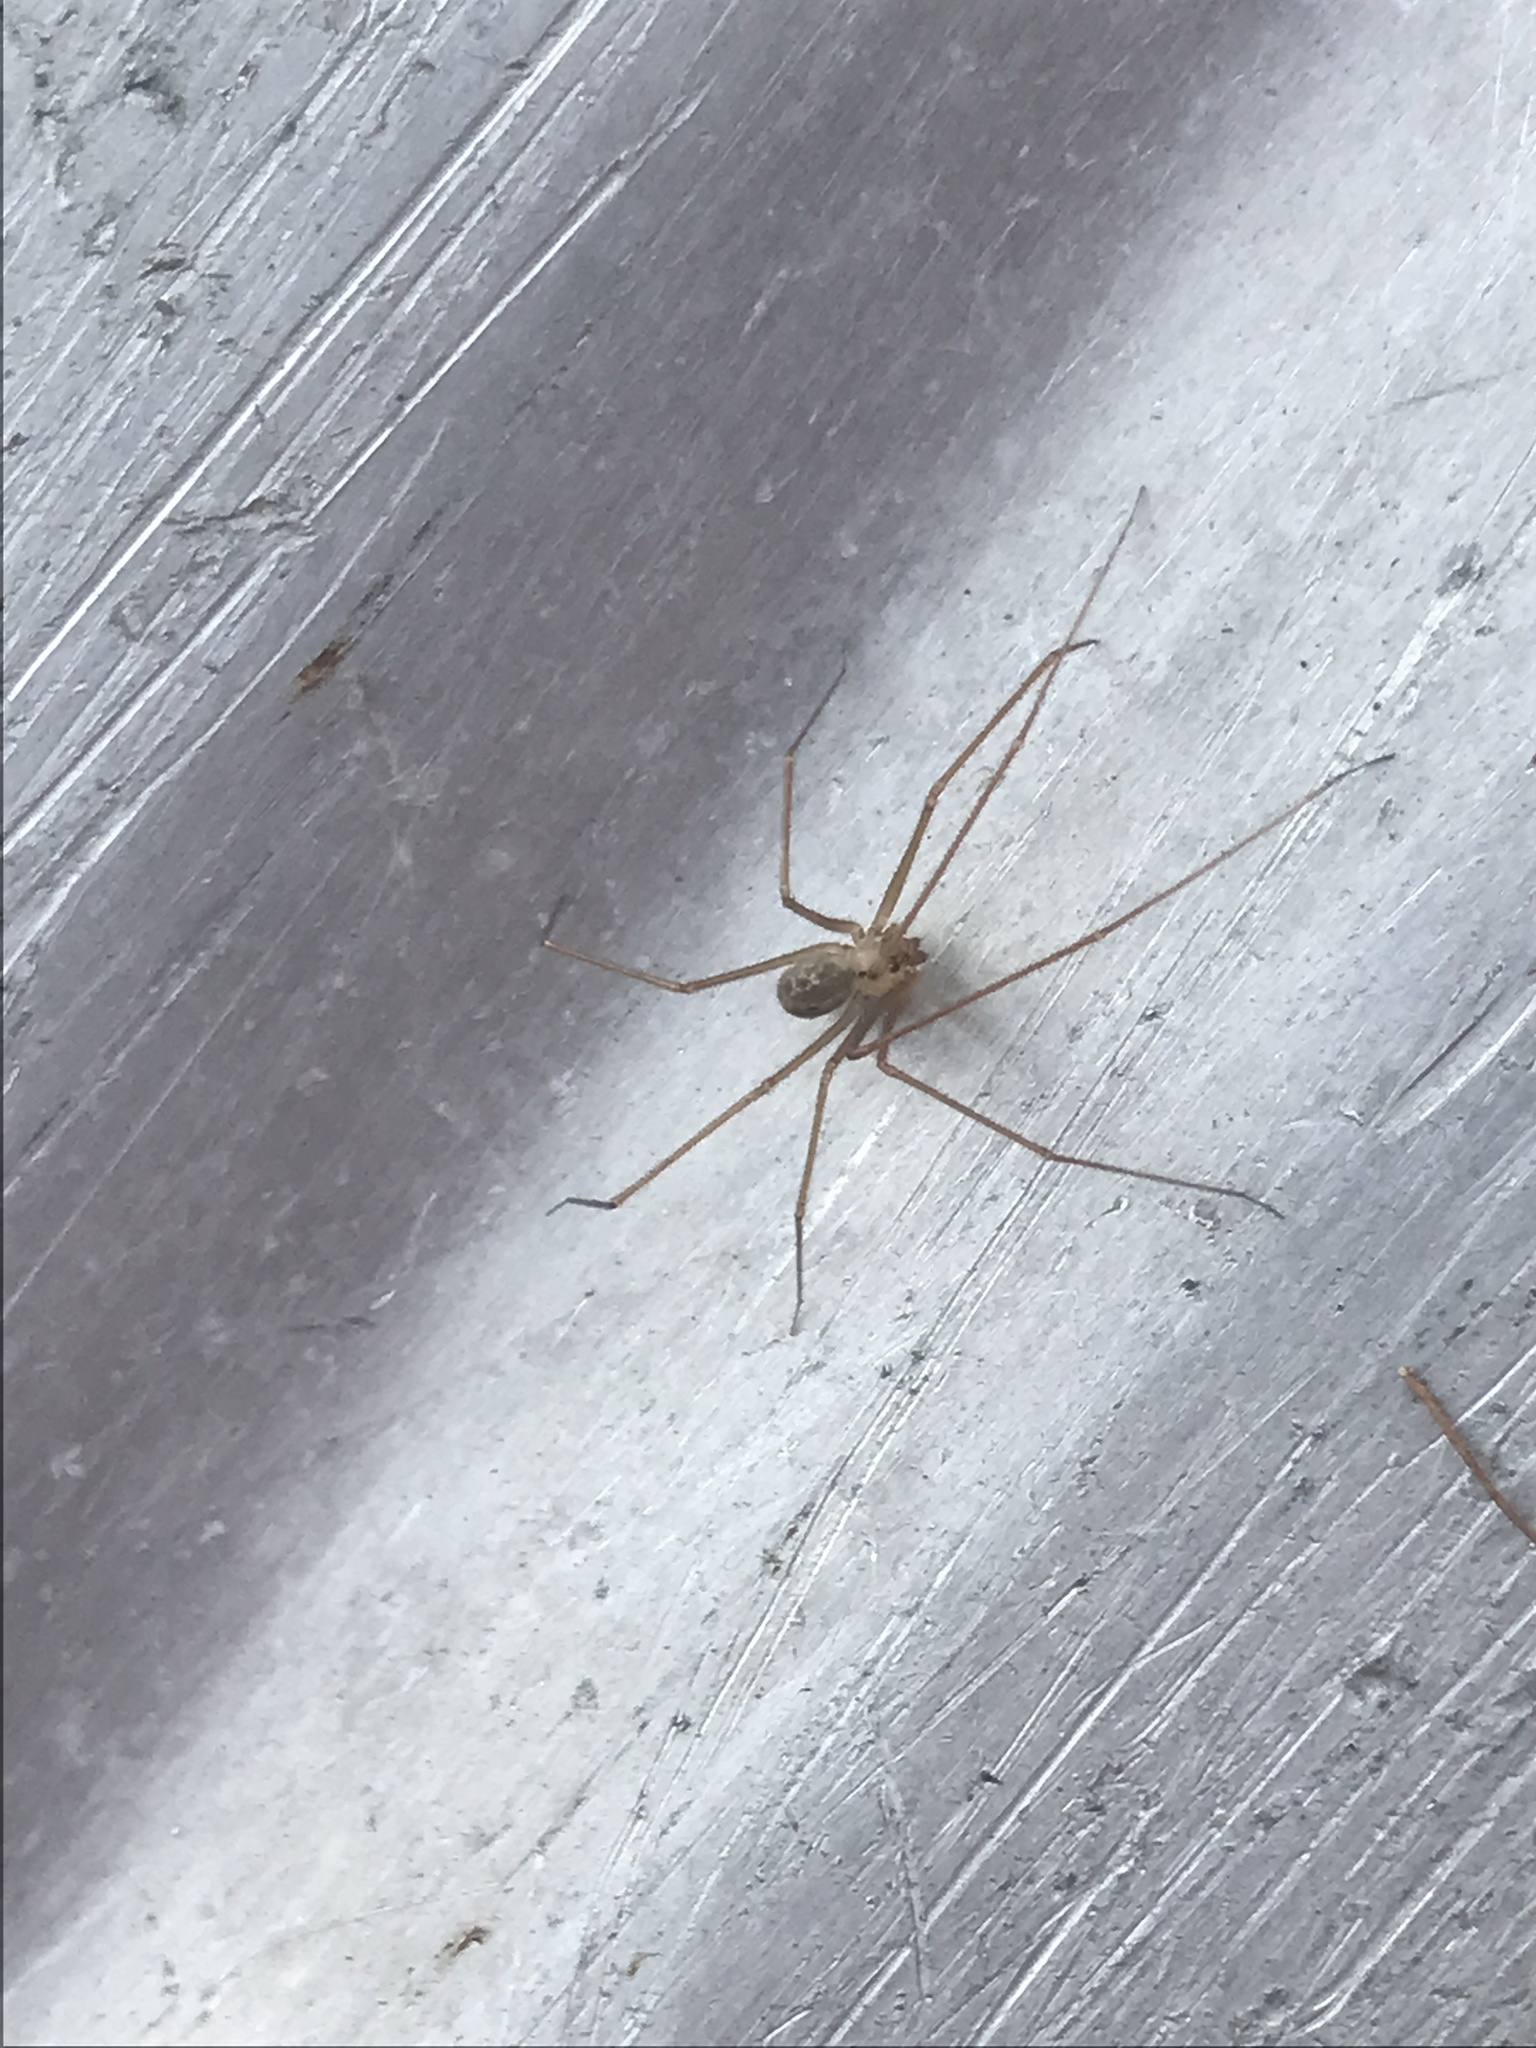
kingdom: Animalia
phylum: Arthropoda
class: Arachnida
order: Araneae
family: Pholcidae
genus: Psilochorus
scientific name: Psilochorus hesperus
